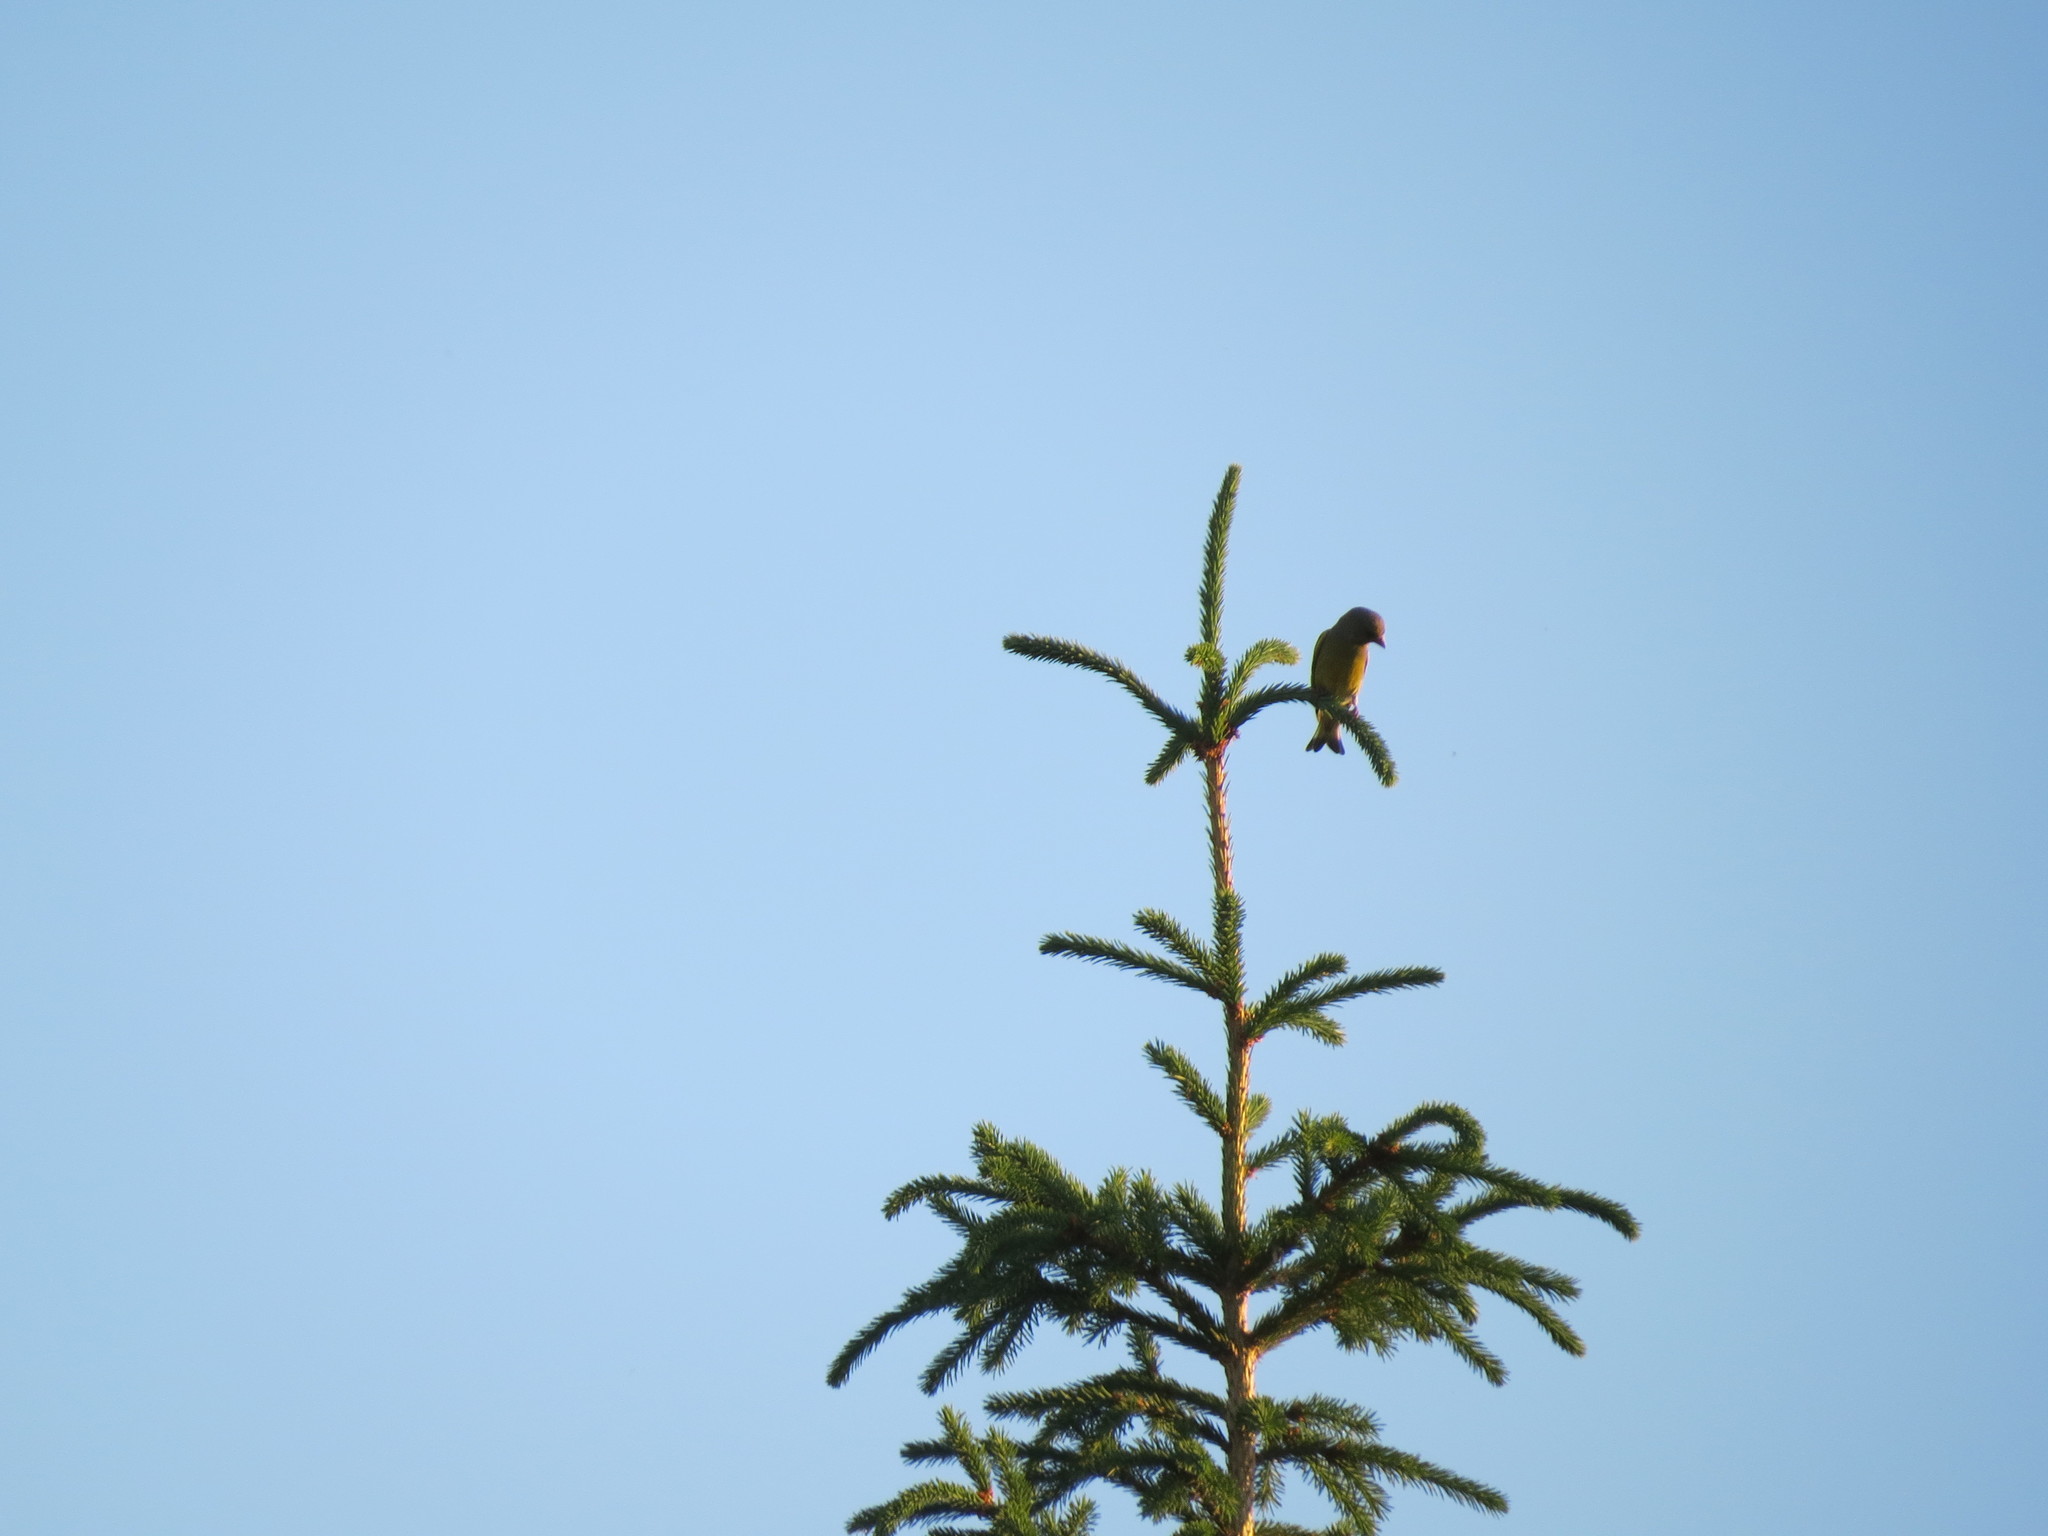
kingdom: Plantae
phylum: Tracheophyta
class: Liliopsida
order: Poales
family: Poaceae
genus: Chloris
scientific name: Chloris chloris
